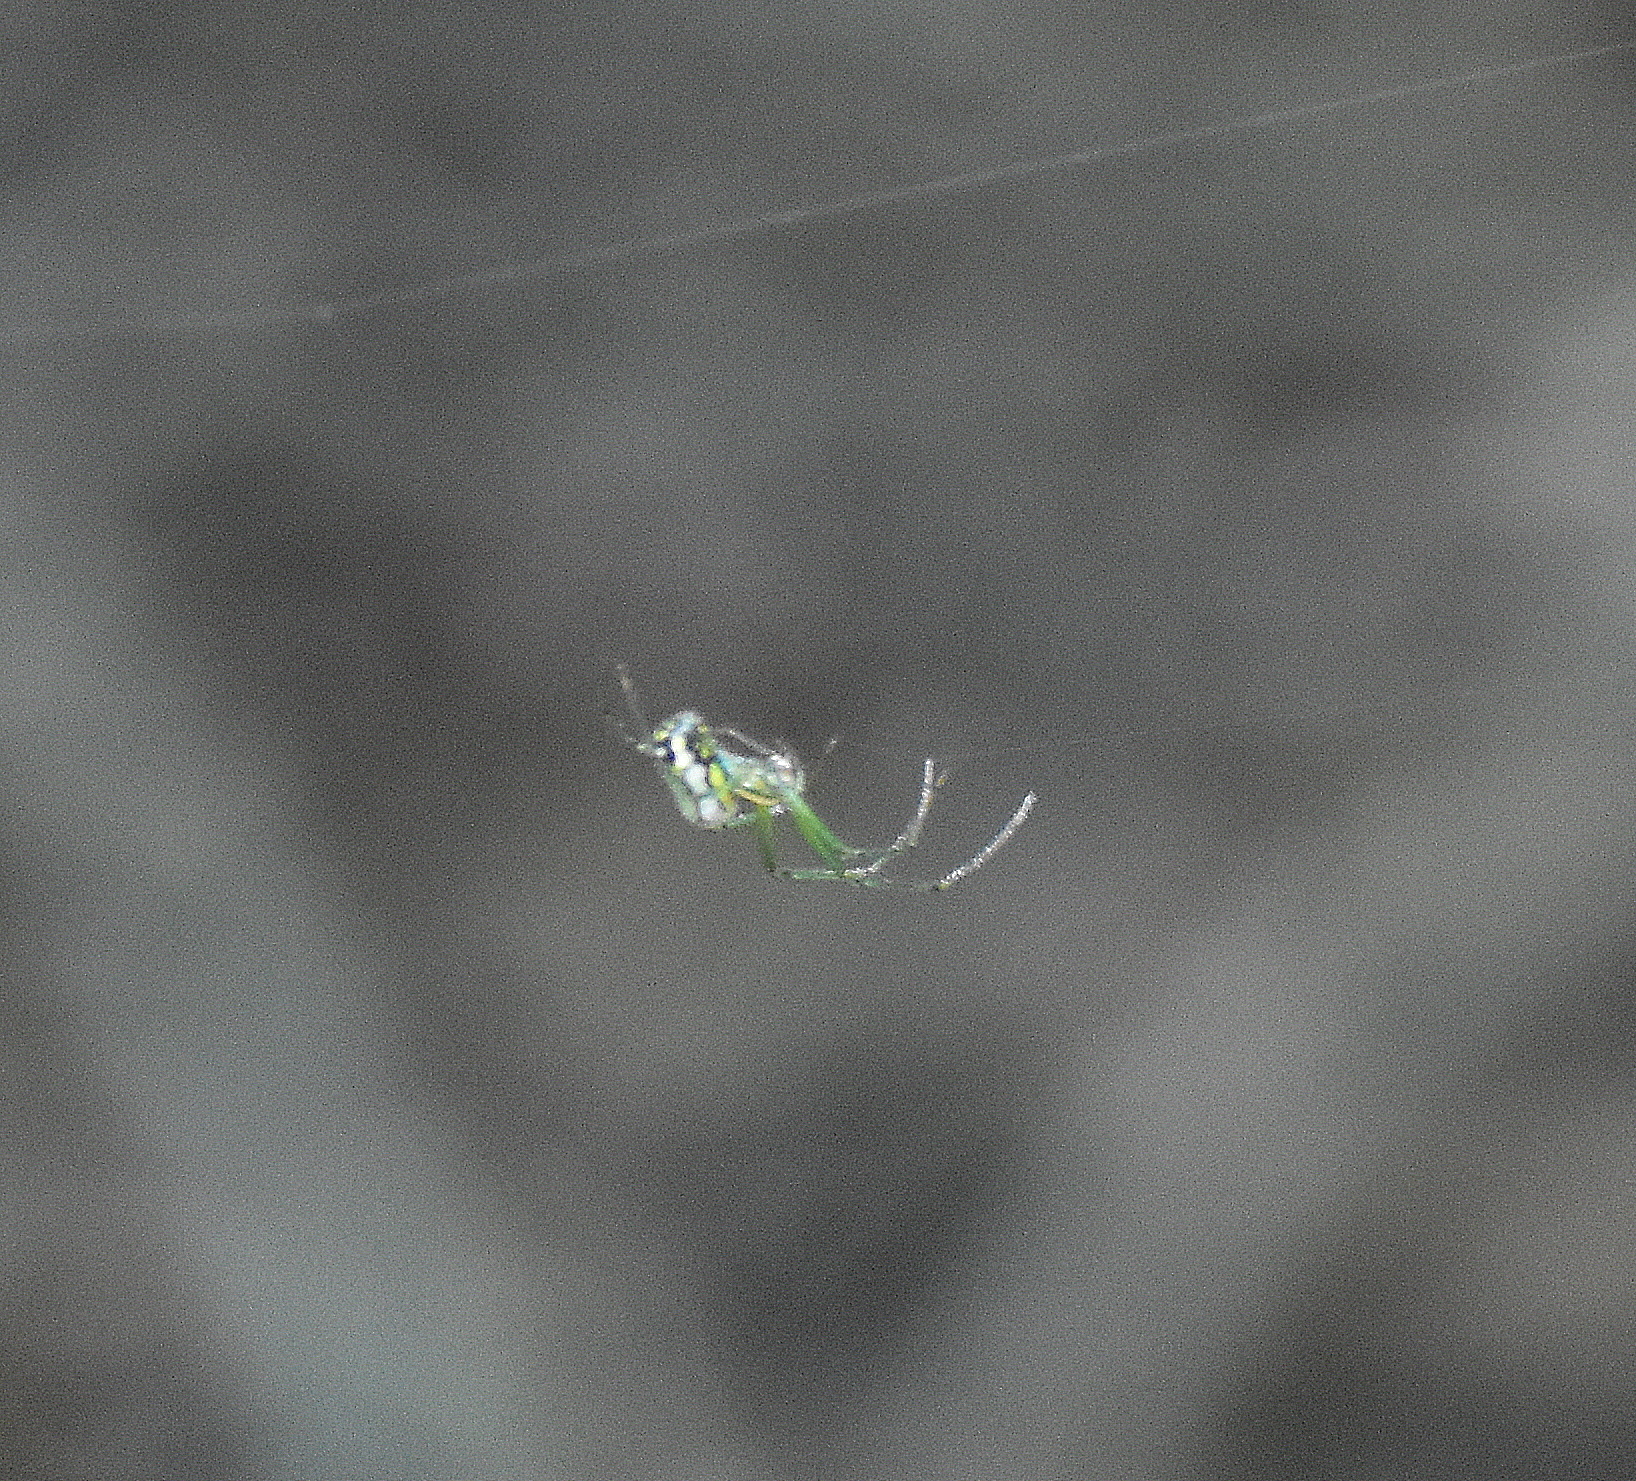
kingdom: Animalia
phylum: Arthropoda
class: Arachnida
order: Araneae
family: Tetragnathidae
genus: Leucauge
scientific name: Leucauge venusta
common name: Longjawed orb weavers
